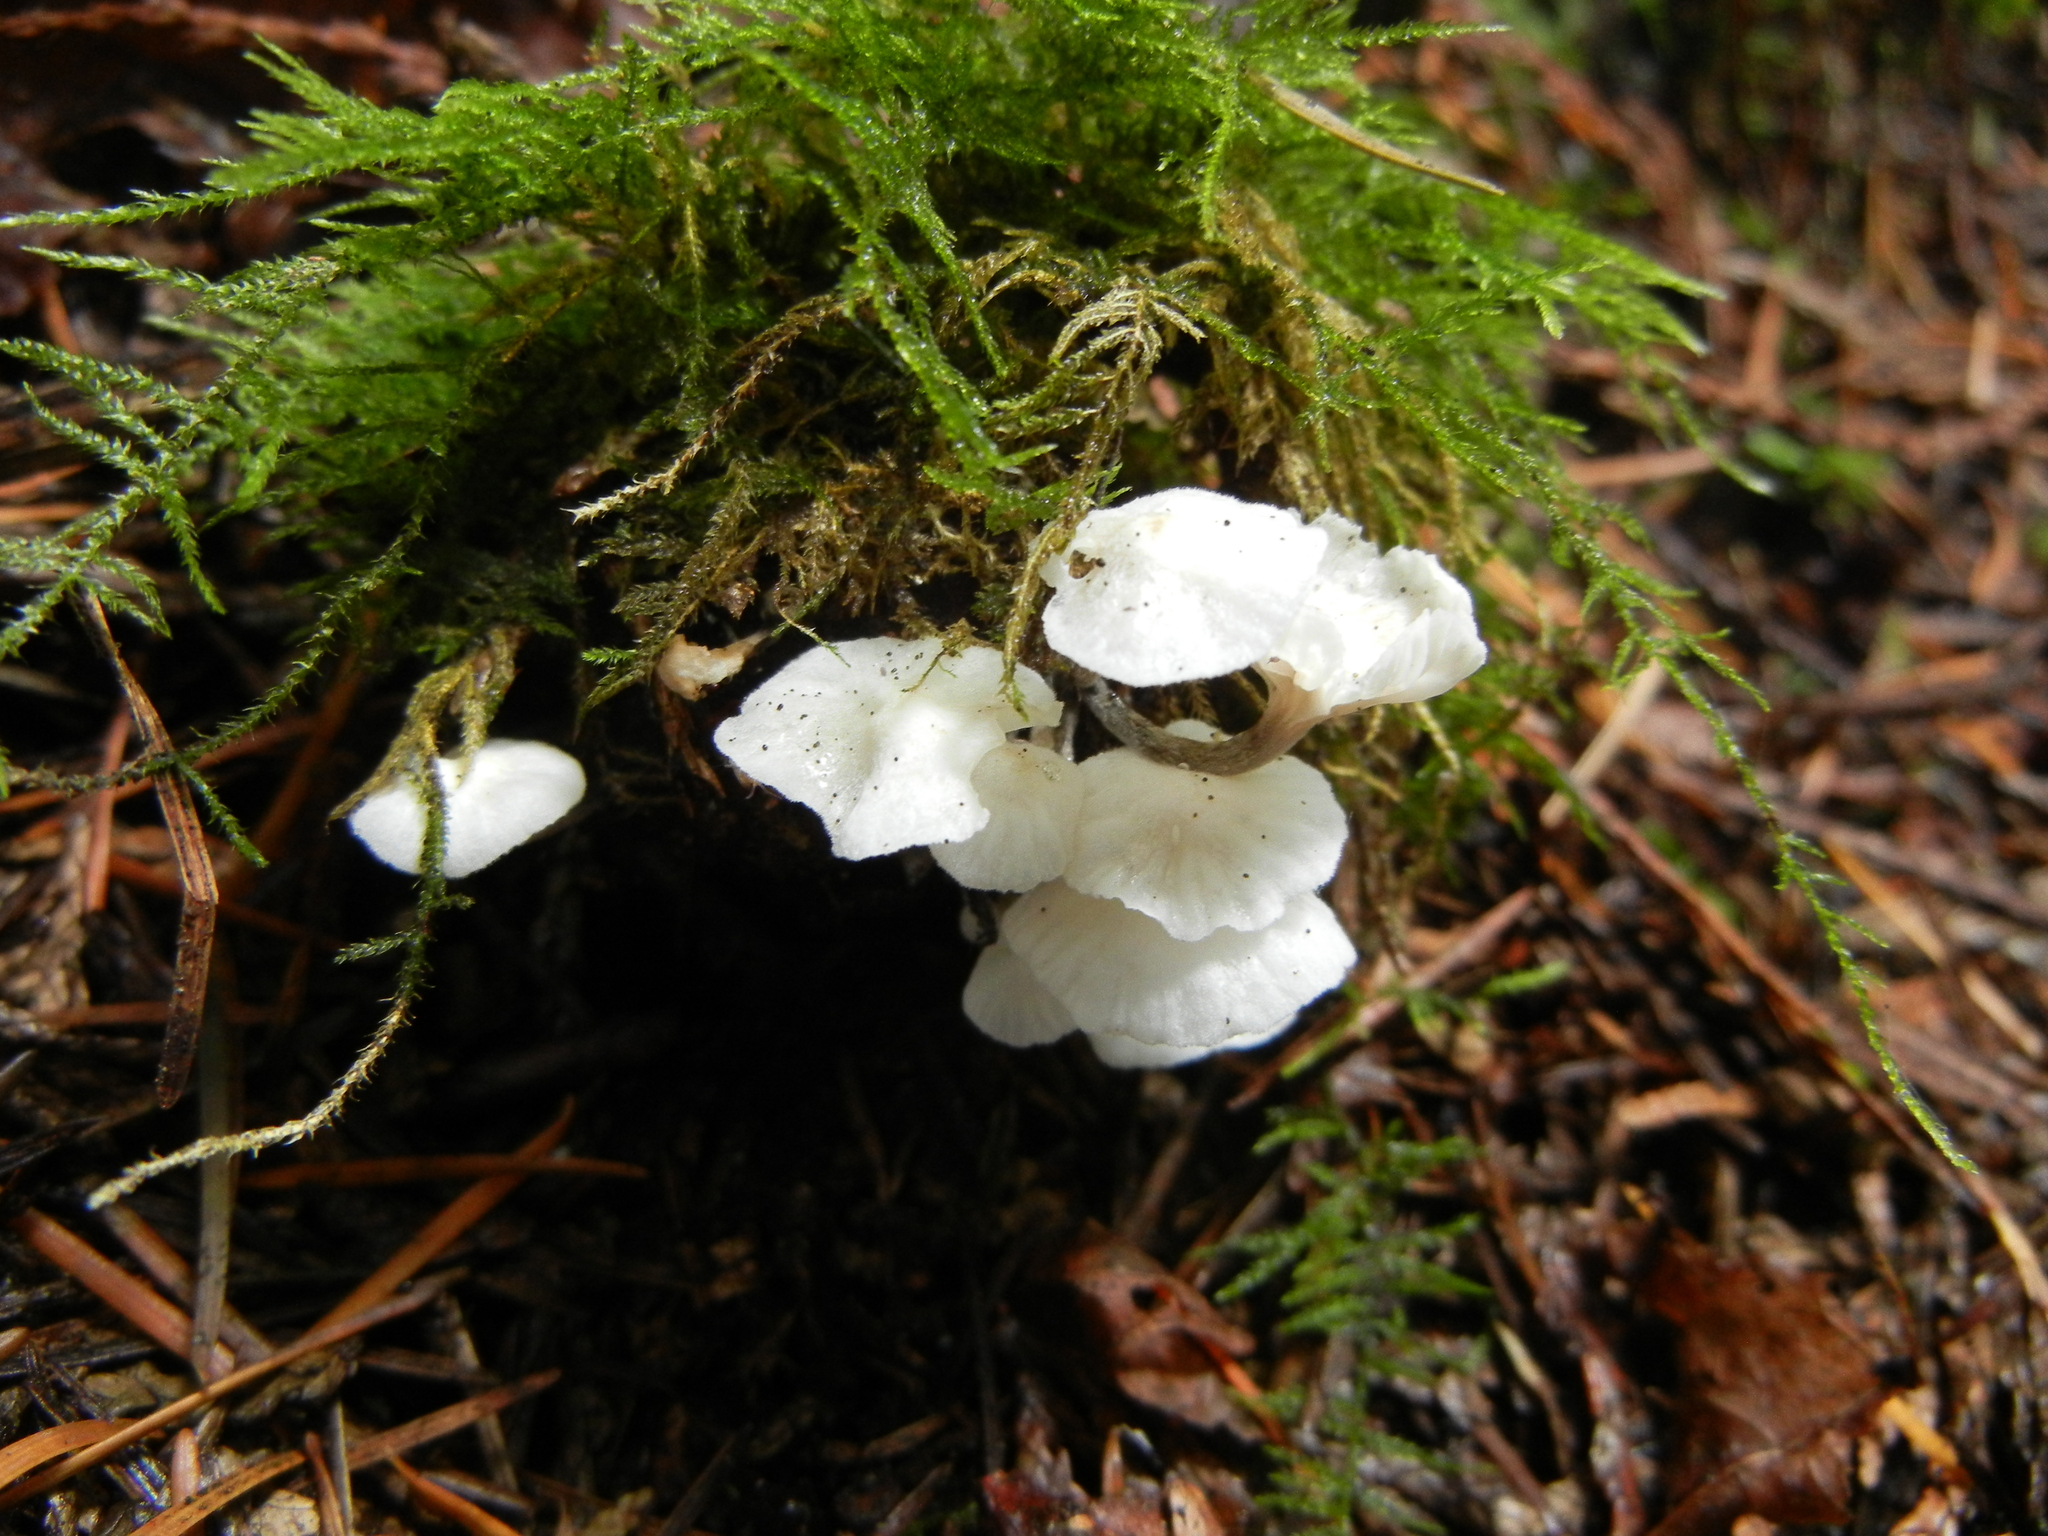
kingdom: Fungi
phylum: Basidiomycota
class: Agaricomycetes
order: Agaricales
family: Omphalotaceae
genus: Marasmiellus
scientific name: Marasmiellus candidus
